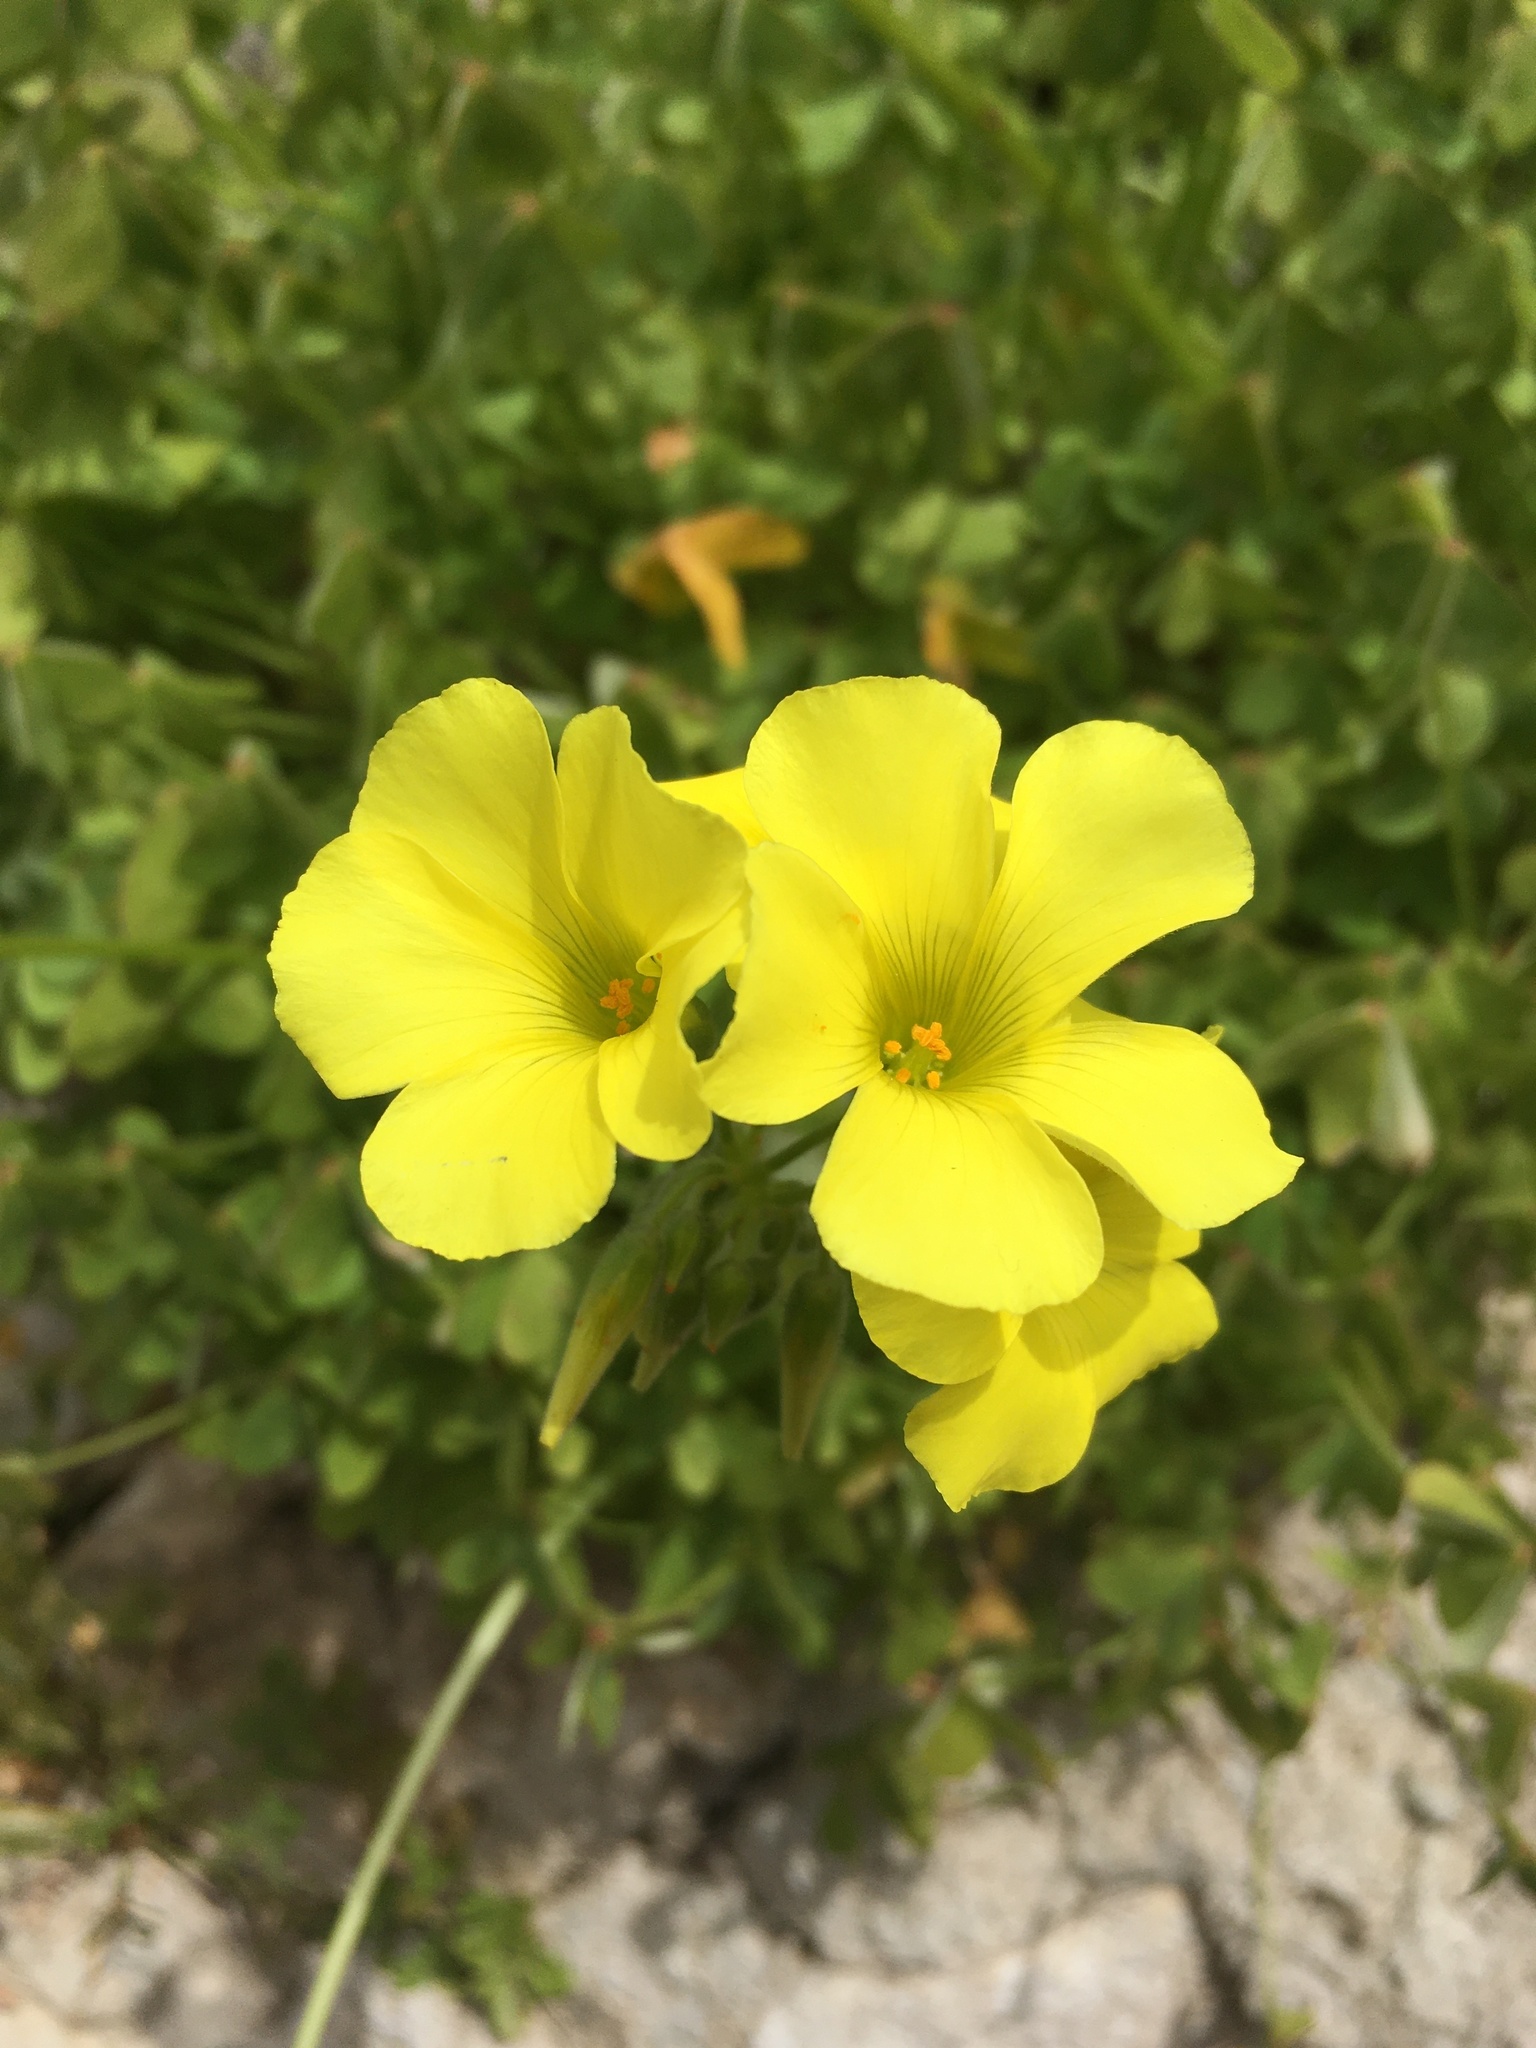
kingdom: Plantae
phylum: Tracheophyta
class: Magnoliopsida
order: Oxalidales
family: Oxalidaceae
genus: Oxalis
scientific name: Oxalis pes-caprae
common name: Bermuda-buttercup
